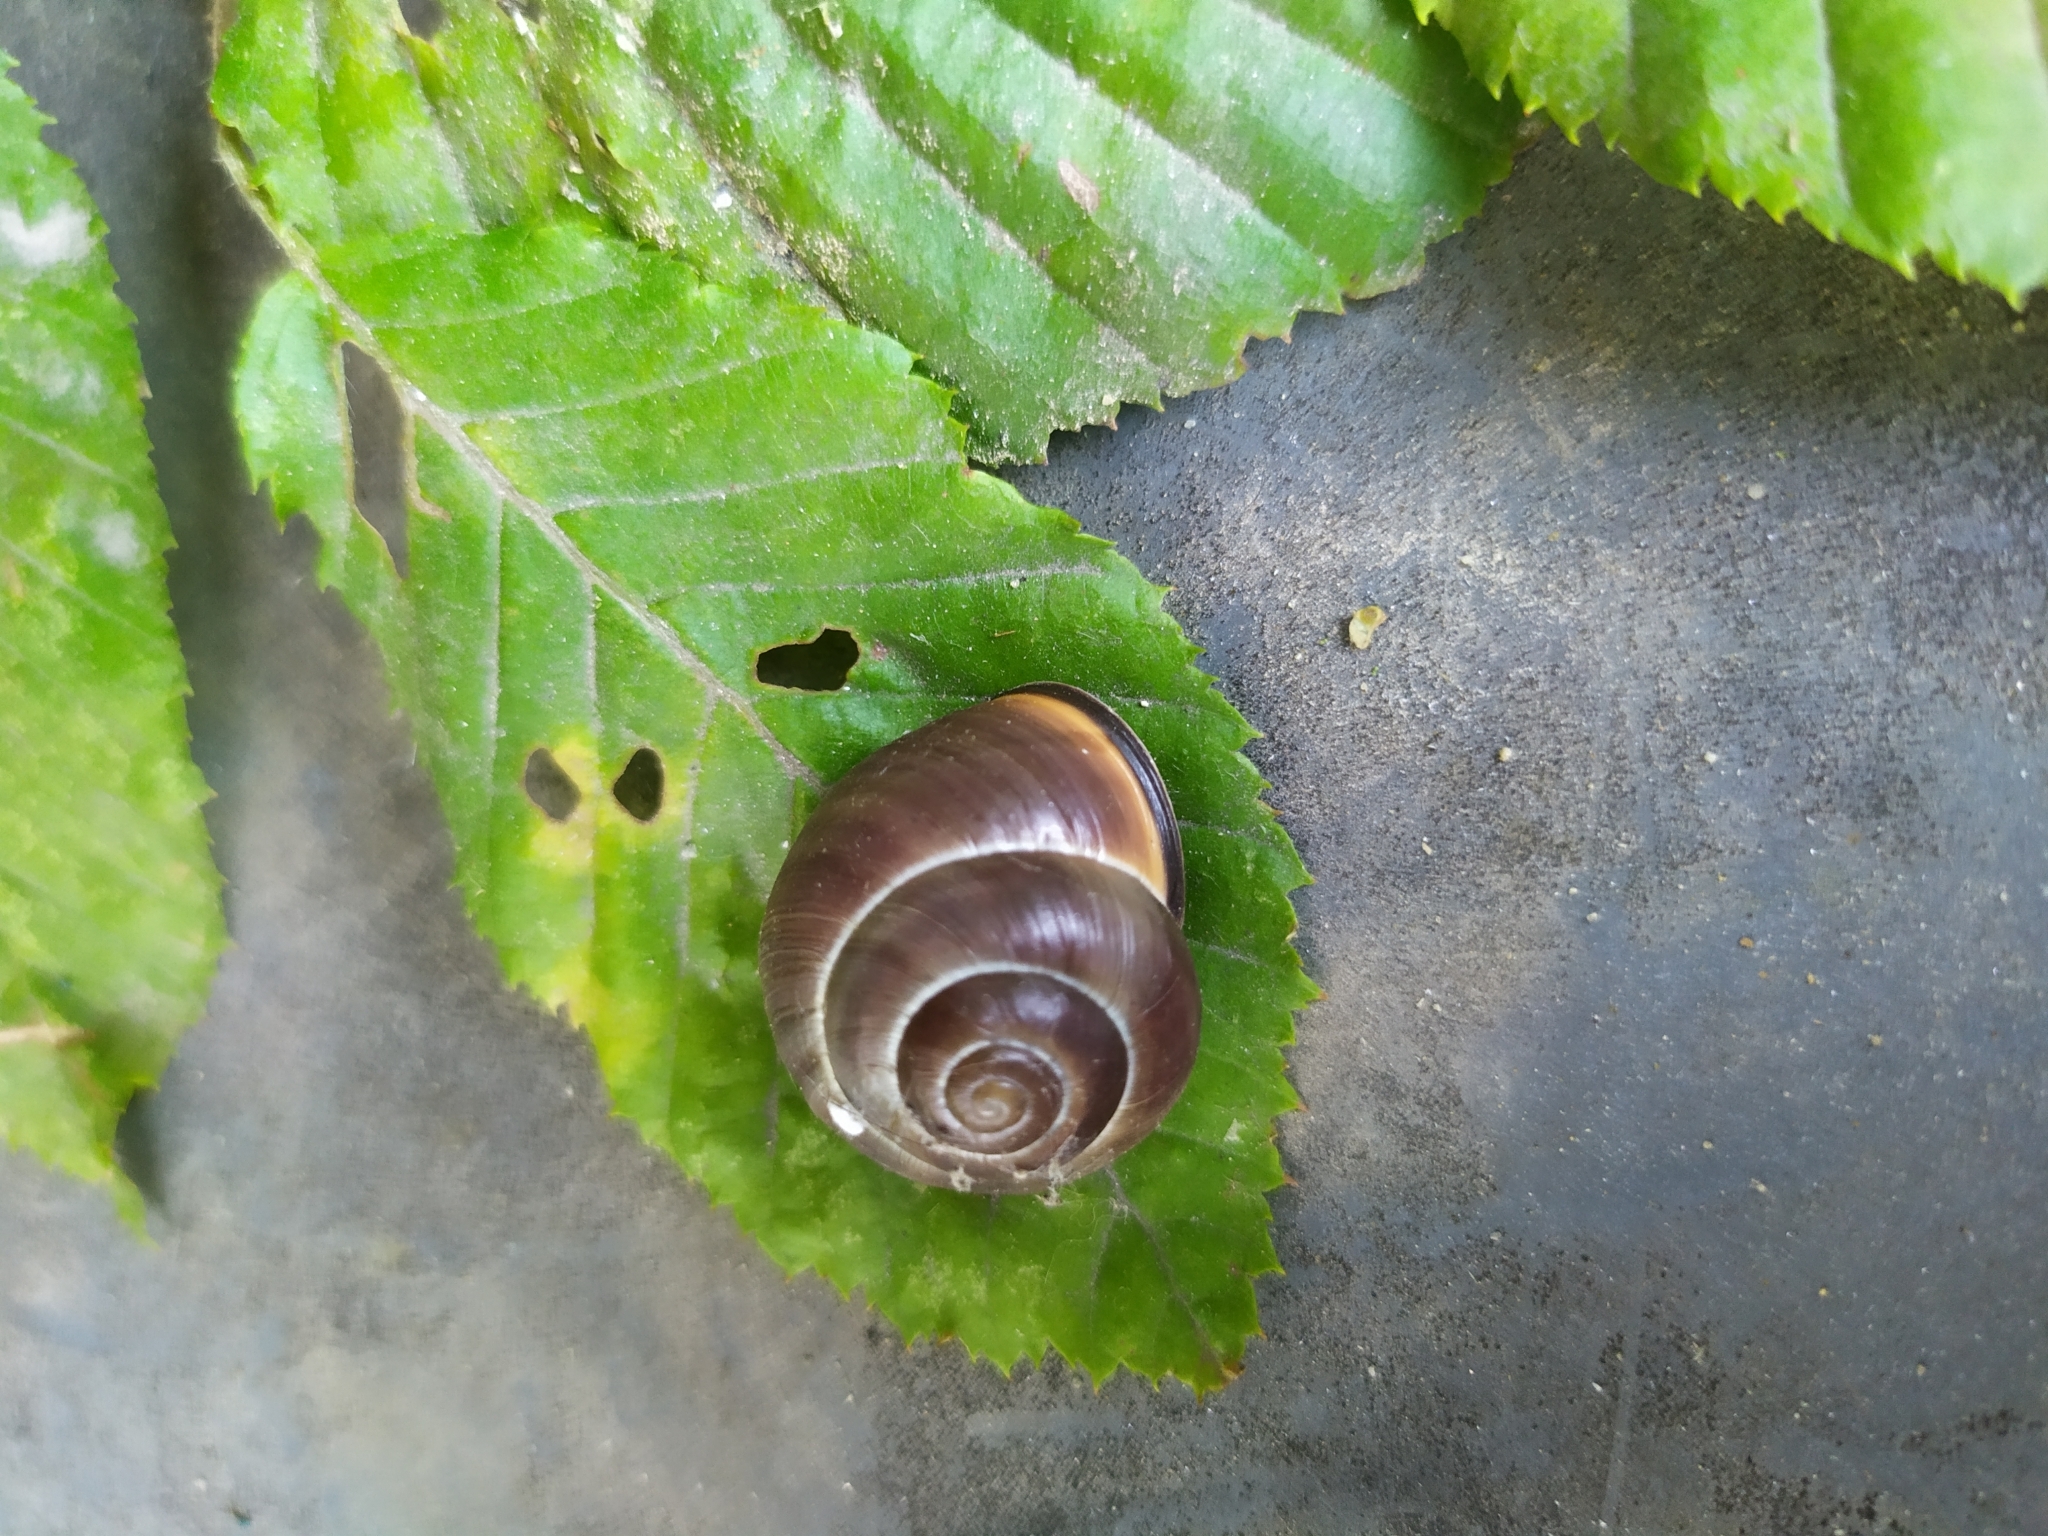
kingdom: Animalia
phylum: Mollusca
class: Gastropoda
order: Stylommatophora
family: Helicidae
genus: Cepaea
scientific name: Cepaea nemoralis
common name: Grovesnail
